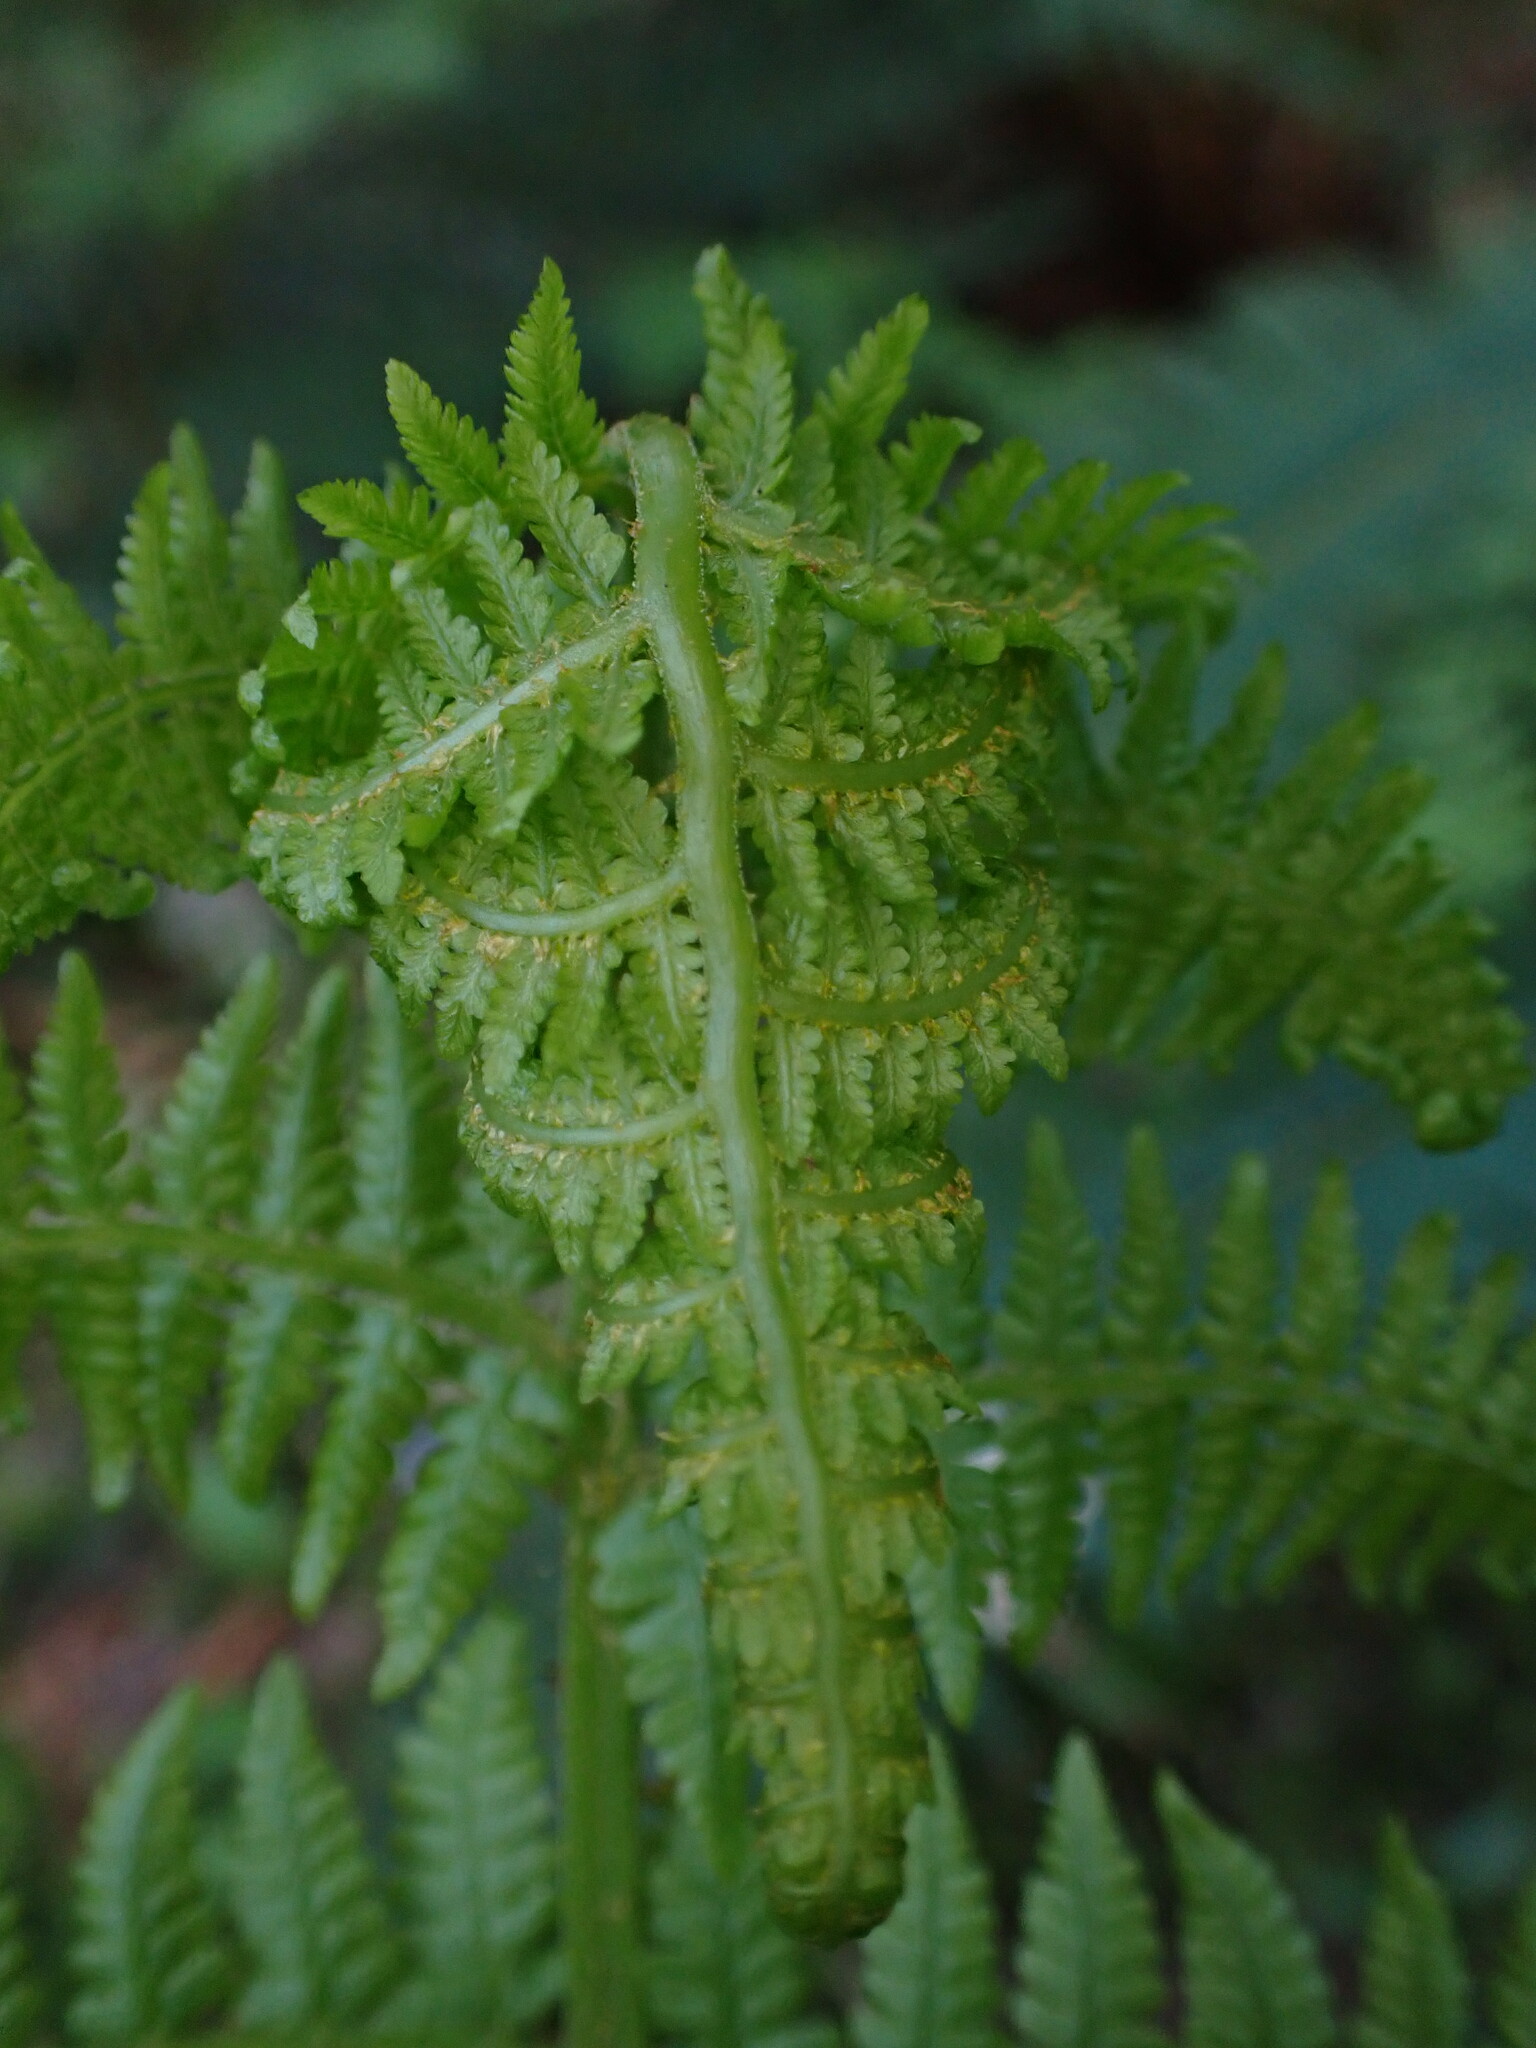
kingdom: Plantae
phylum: Tracheophyta
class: Polypodiopsida
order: Polypodiales
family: Athyriaceae
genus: Athyrium
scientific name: Athyrium cyclosorum
